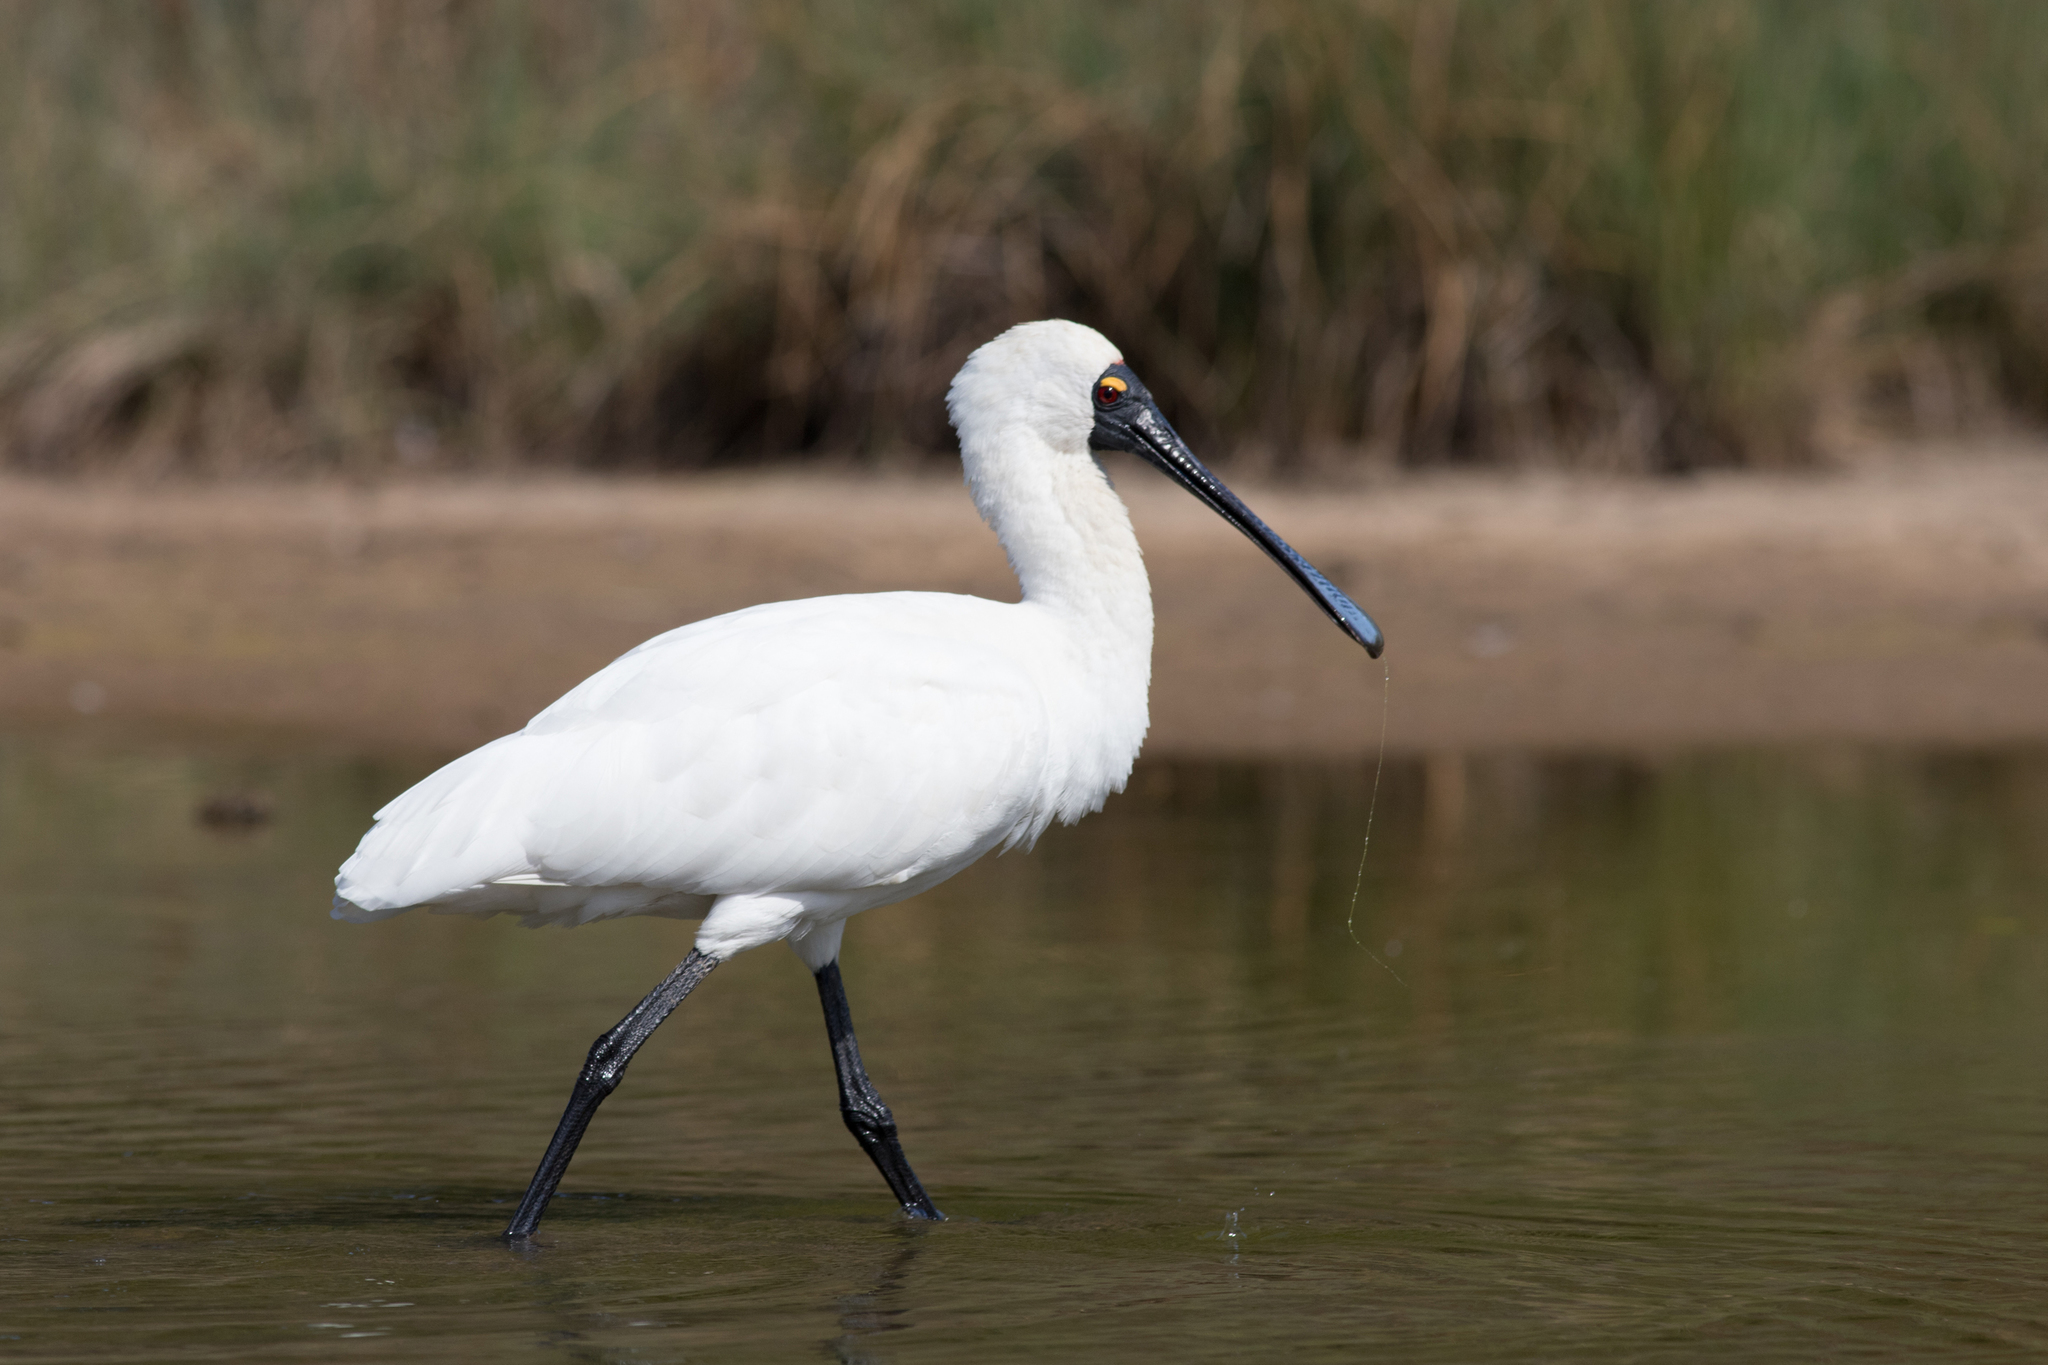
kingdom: Animalia
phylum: Chordata
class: Aves
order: Pelecaniformes
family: Threskiornithidae
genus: Platalea
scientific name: Platalea regia
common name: Royal spoonbill
